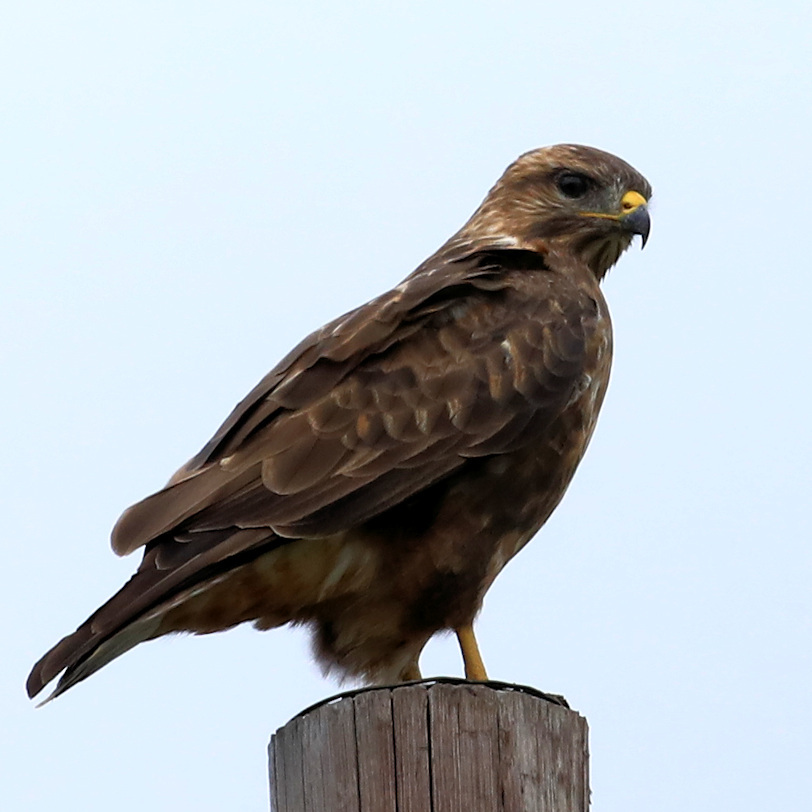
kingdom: Animalia
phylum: Chordata
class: Aves
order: Accipitriformes
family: Accipitridae
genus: Buteo
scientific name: Buteo buteo
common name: Common buzzard
